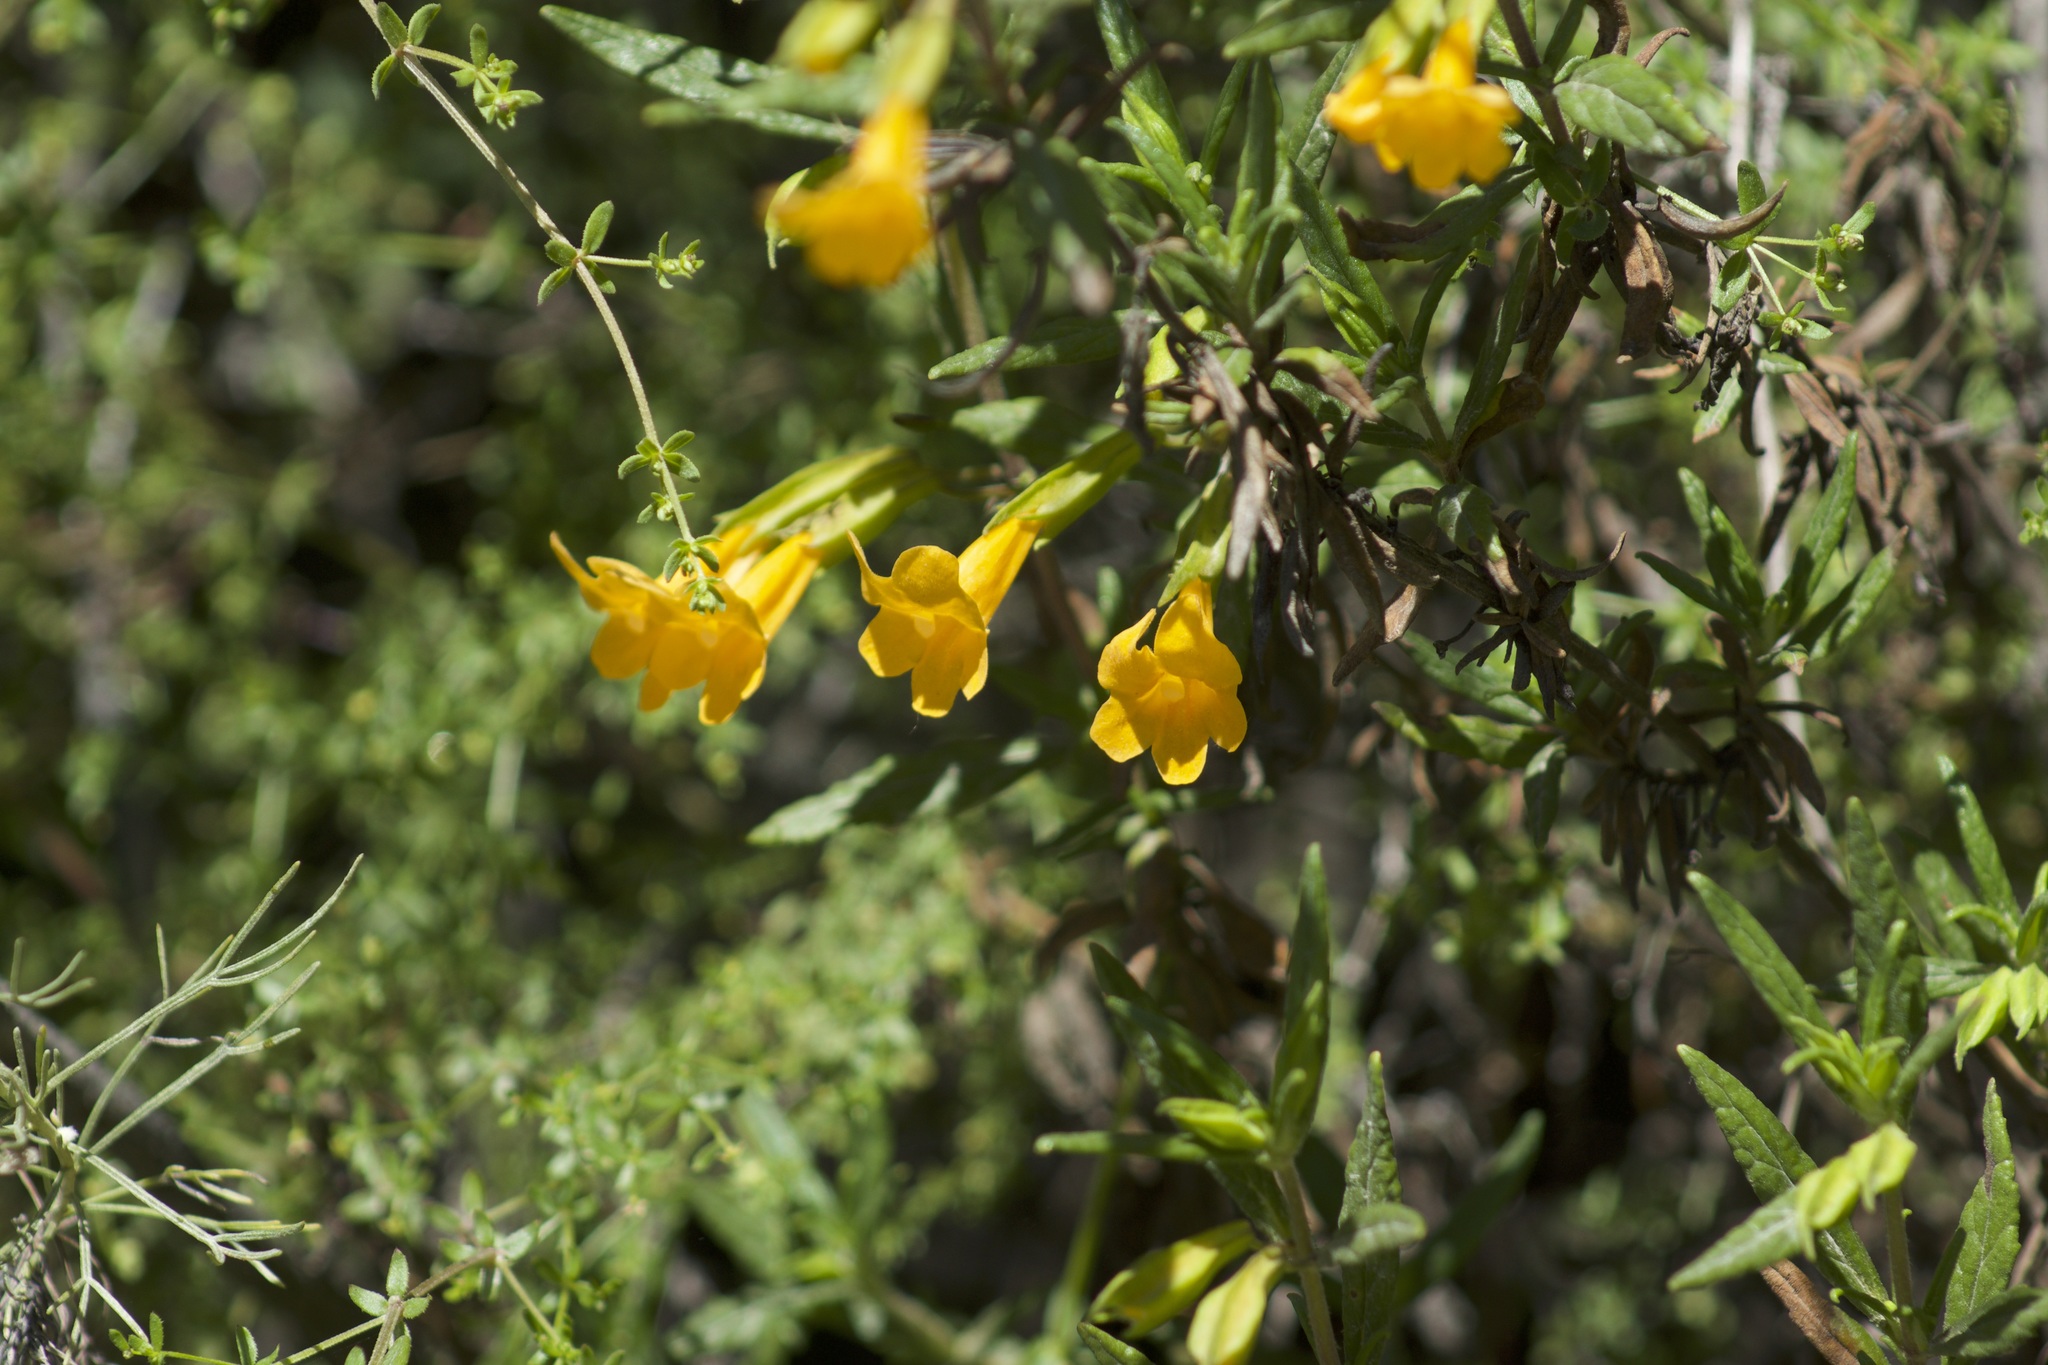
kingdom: Plantae
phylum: Tracheophyta
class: Magnoliopsida
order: Lamiales
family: Phrymaceae
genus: Diplacus
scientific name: Diplacus aurantiacus
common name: Bush monkey-flower
